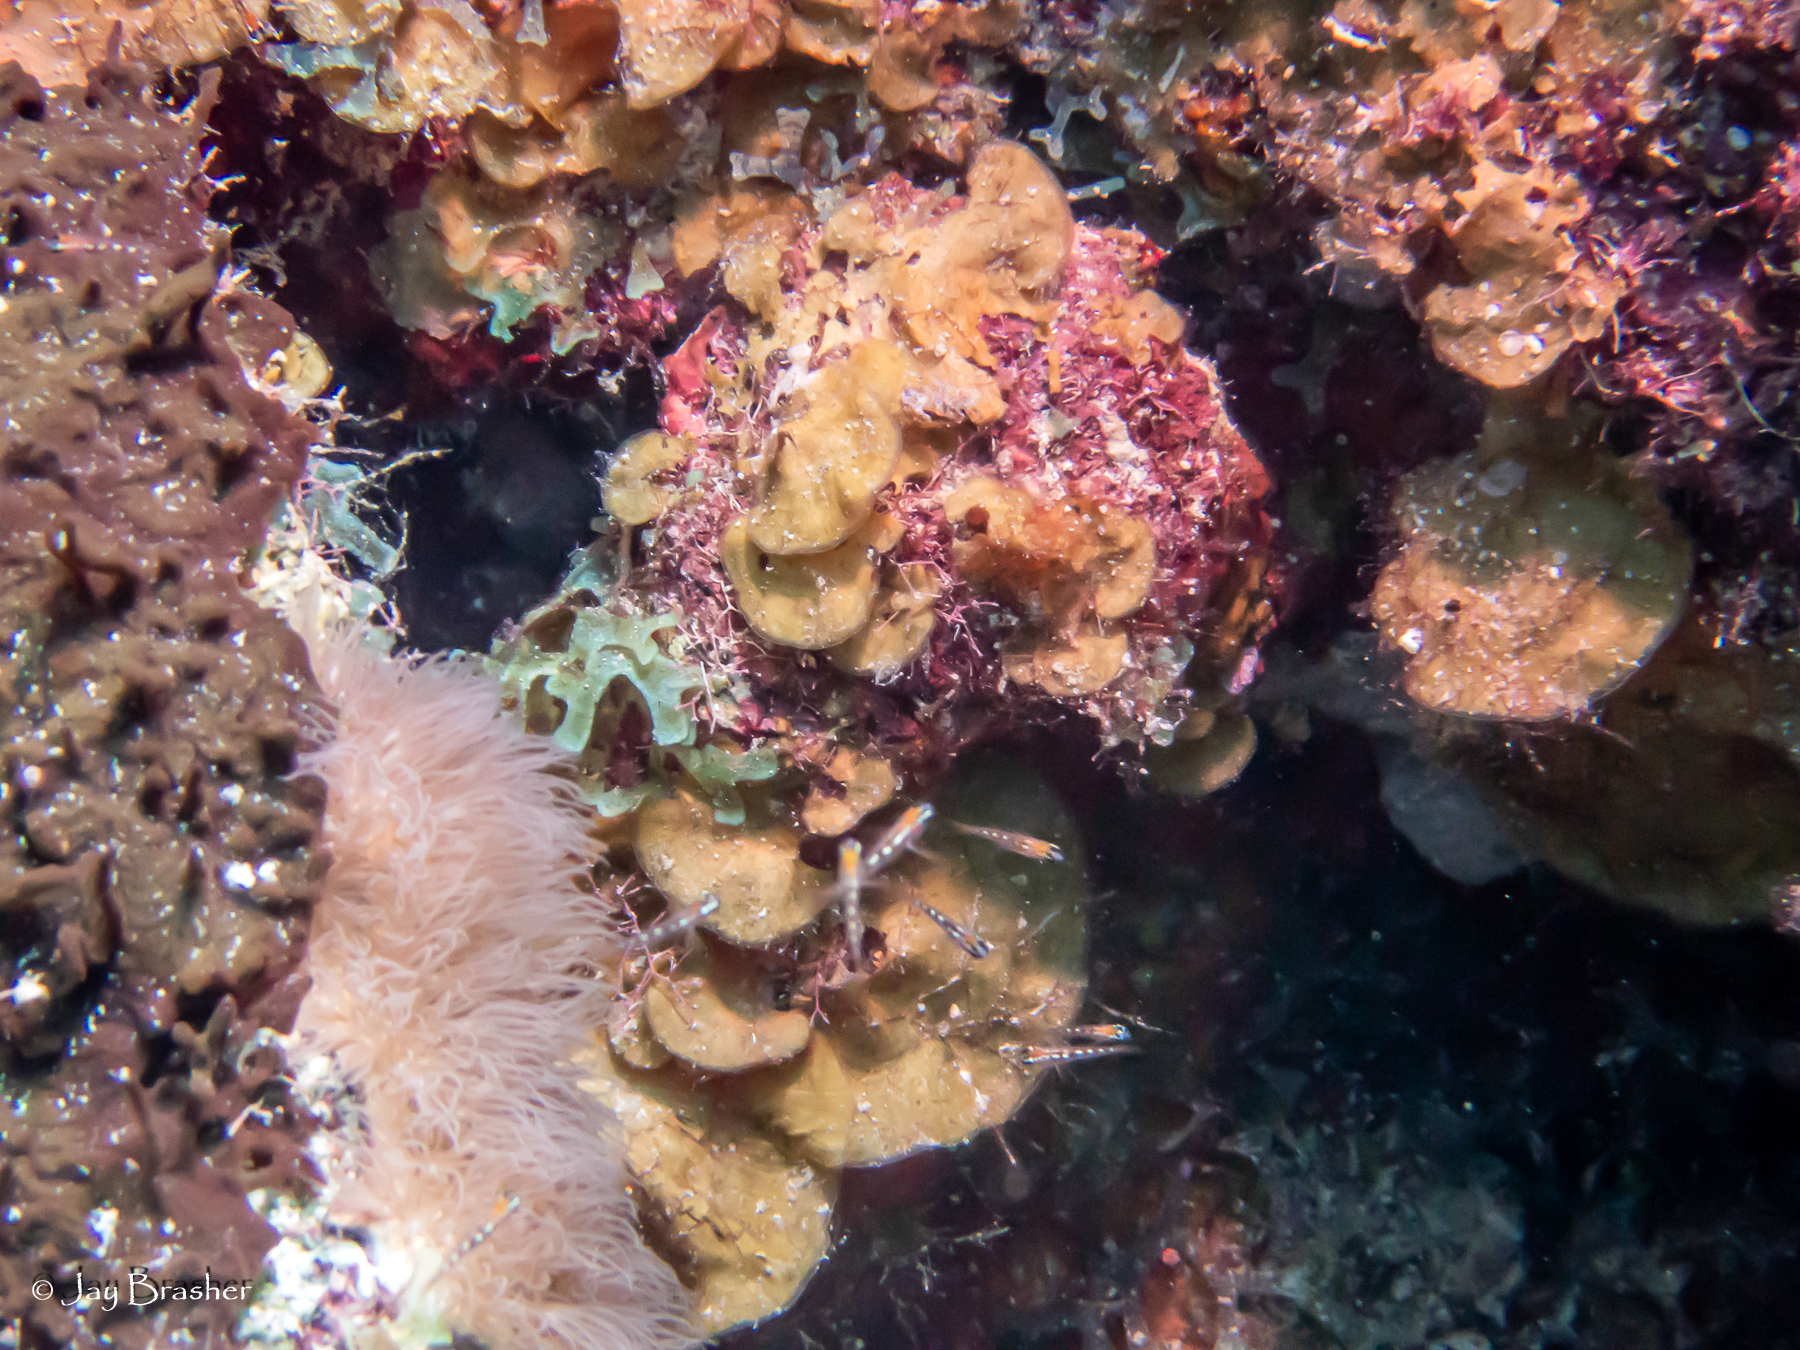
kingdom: Chromista
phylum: Ochrophyta
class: Phaeophyceae
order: Dictyotales
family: Dictyotaceae
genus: Lobophora
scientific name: Lobophora variegata
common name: Encrusting fan-leaf algae
